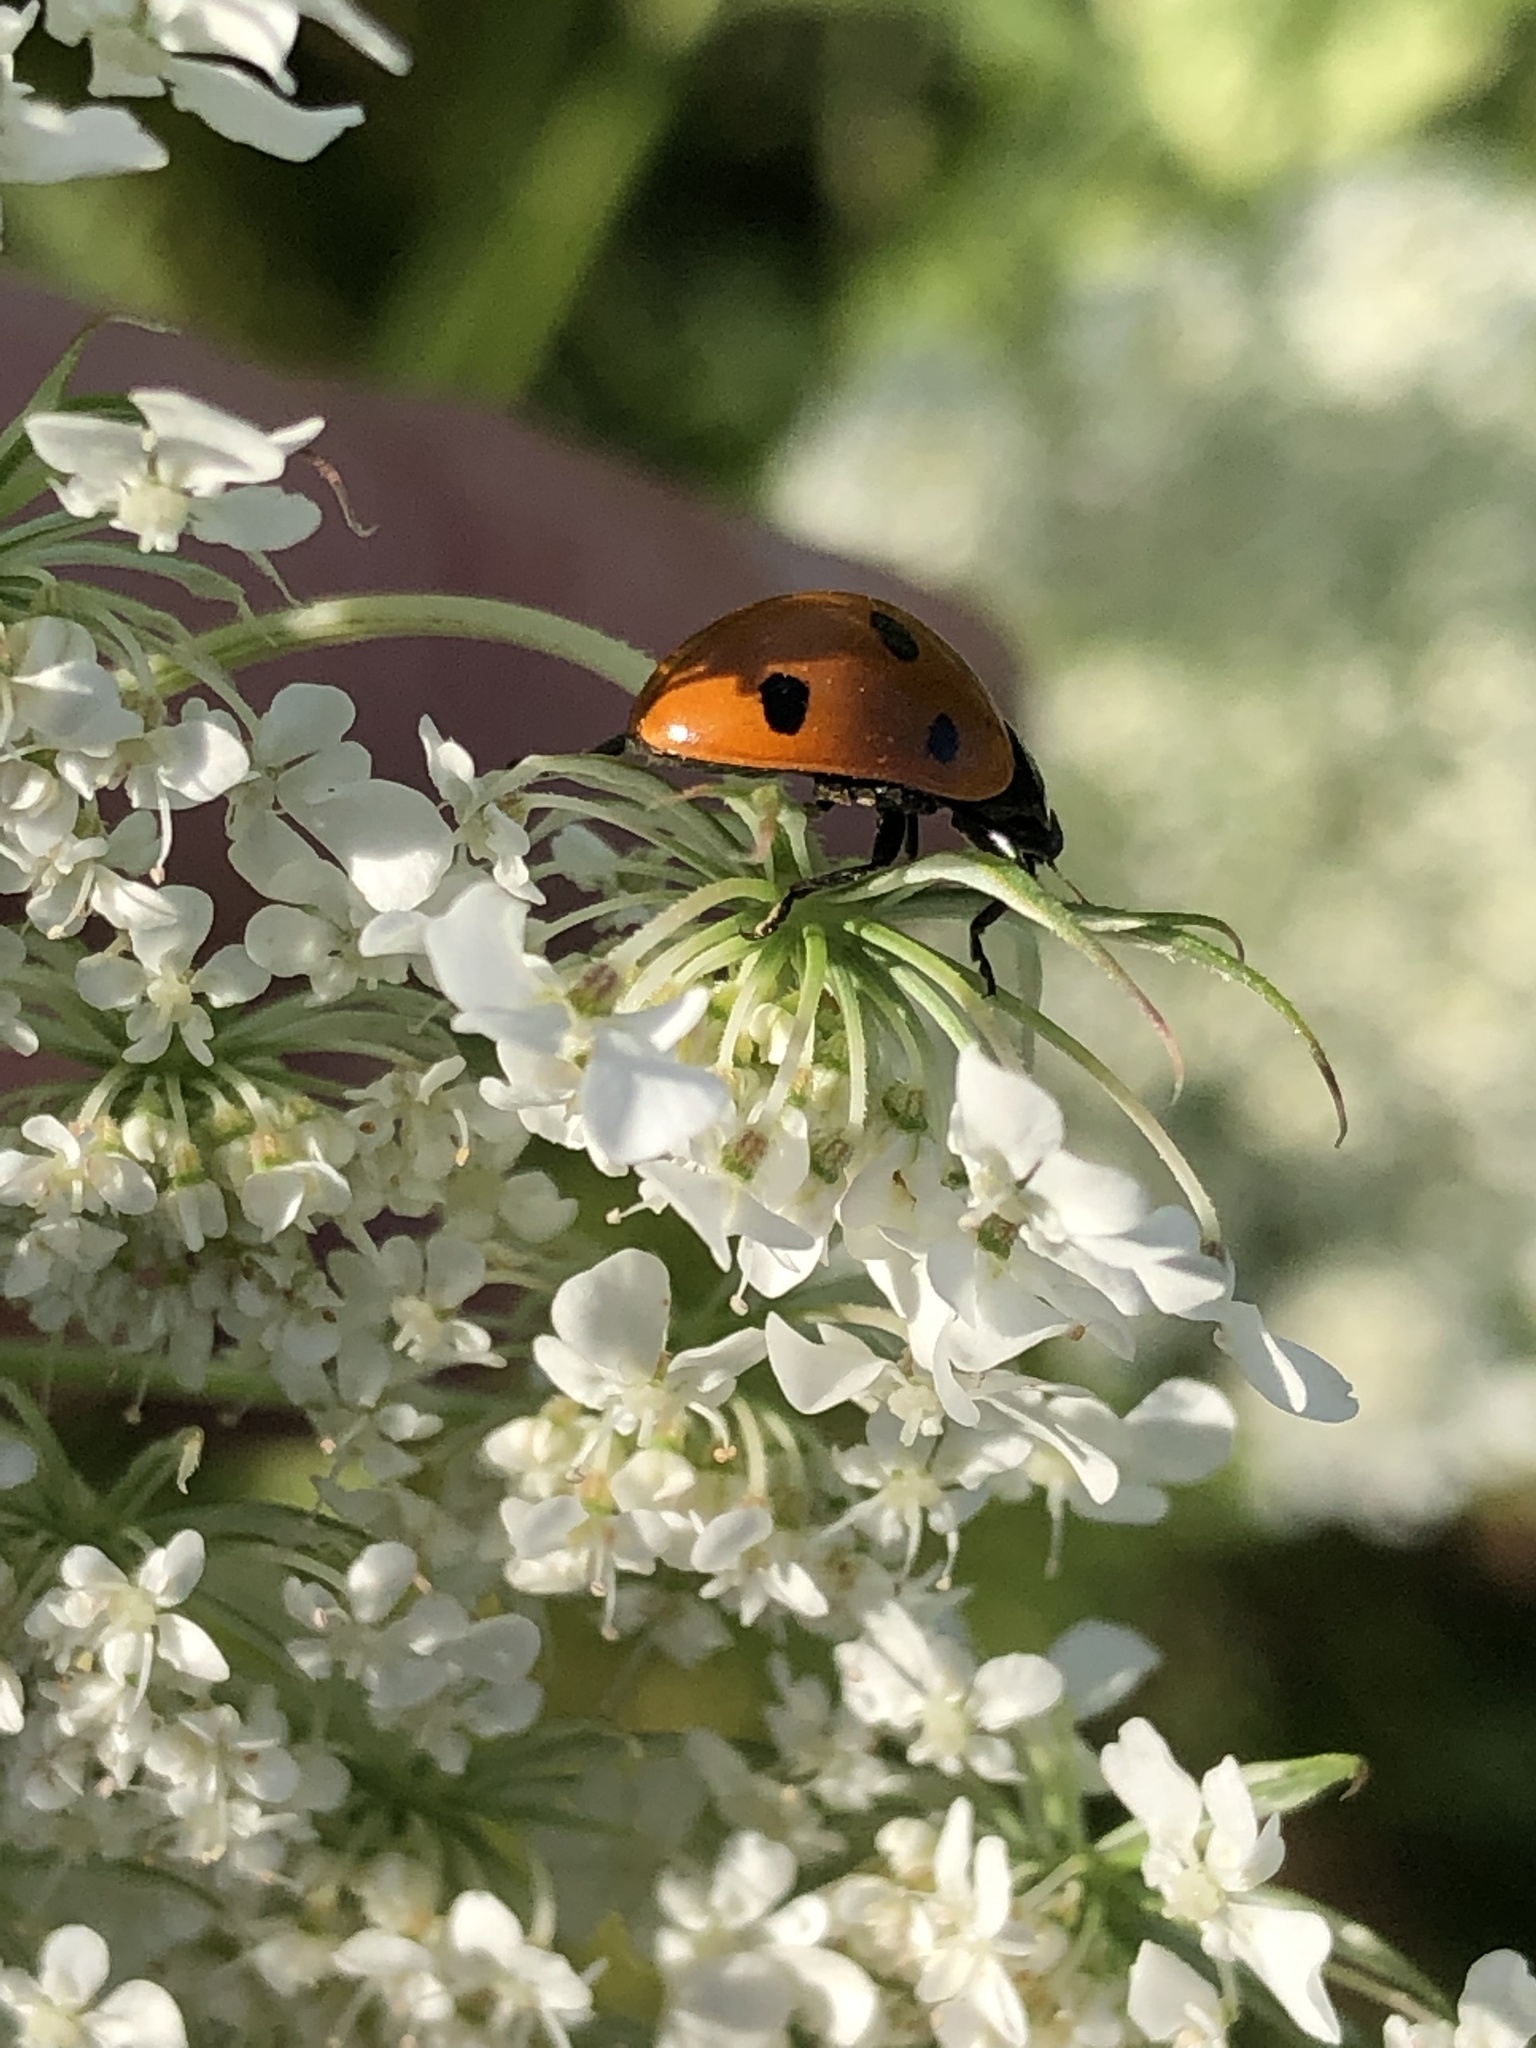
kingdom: Animalia
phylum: Arthropoda
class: Insecta
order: Coleoptera
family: Coccinellidae
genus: Coccinella
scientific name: Coccinella septempunctata
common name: Sevenspotted lady beetle
